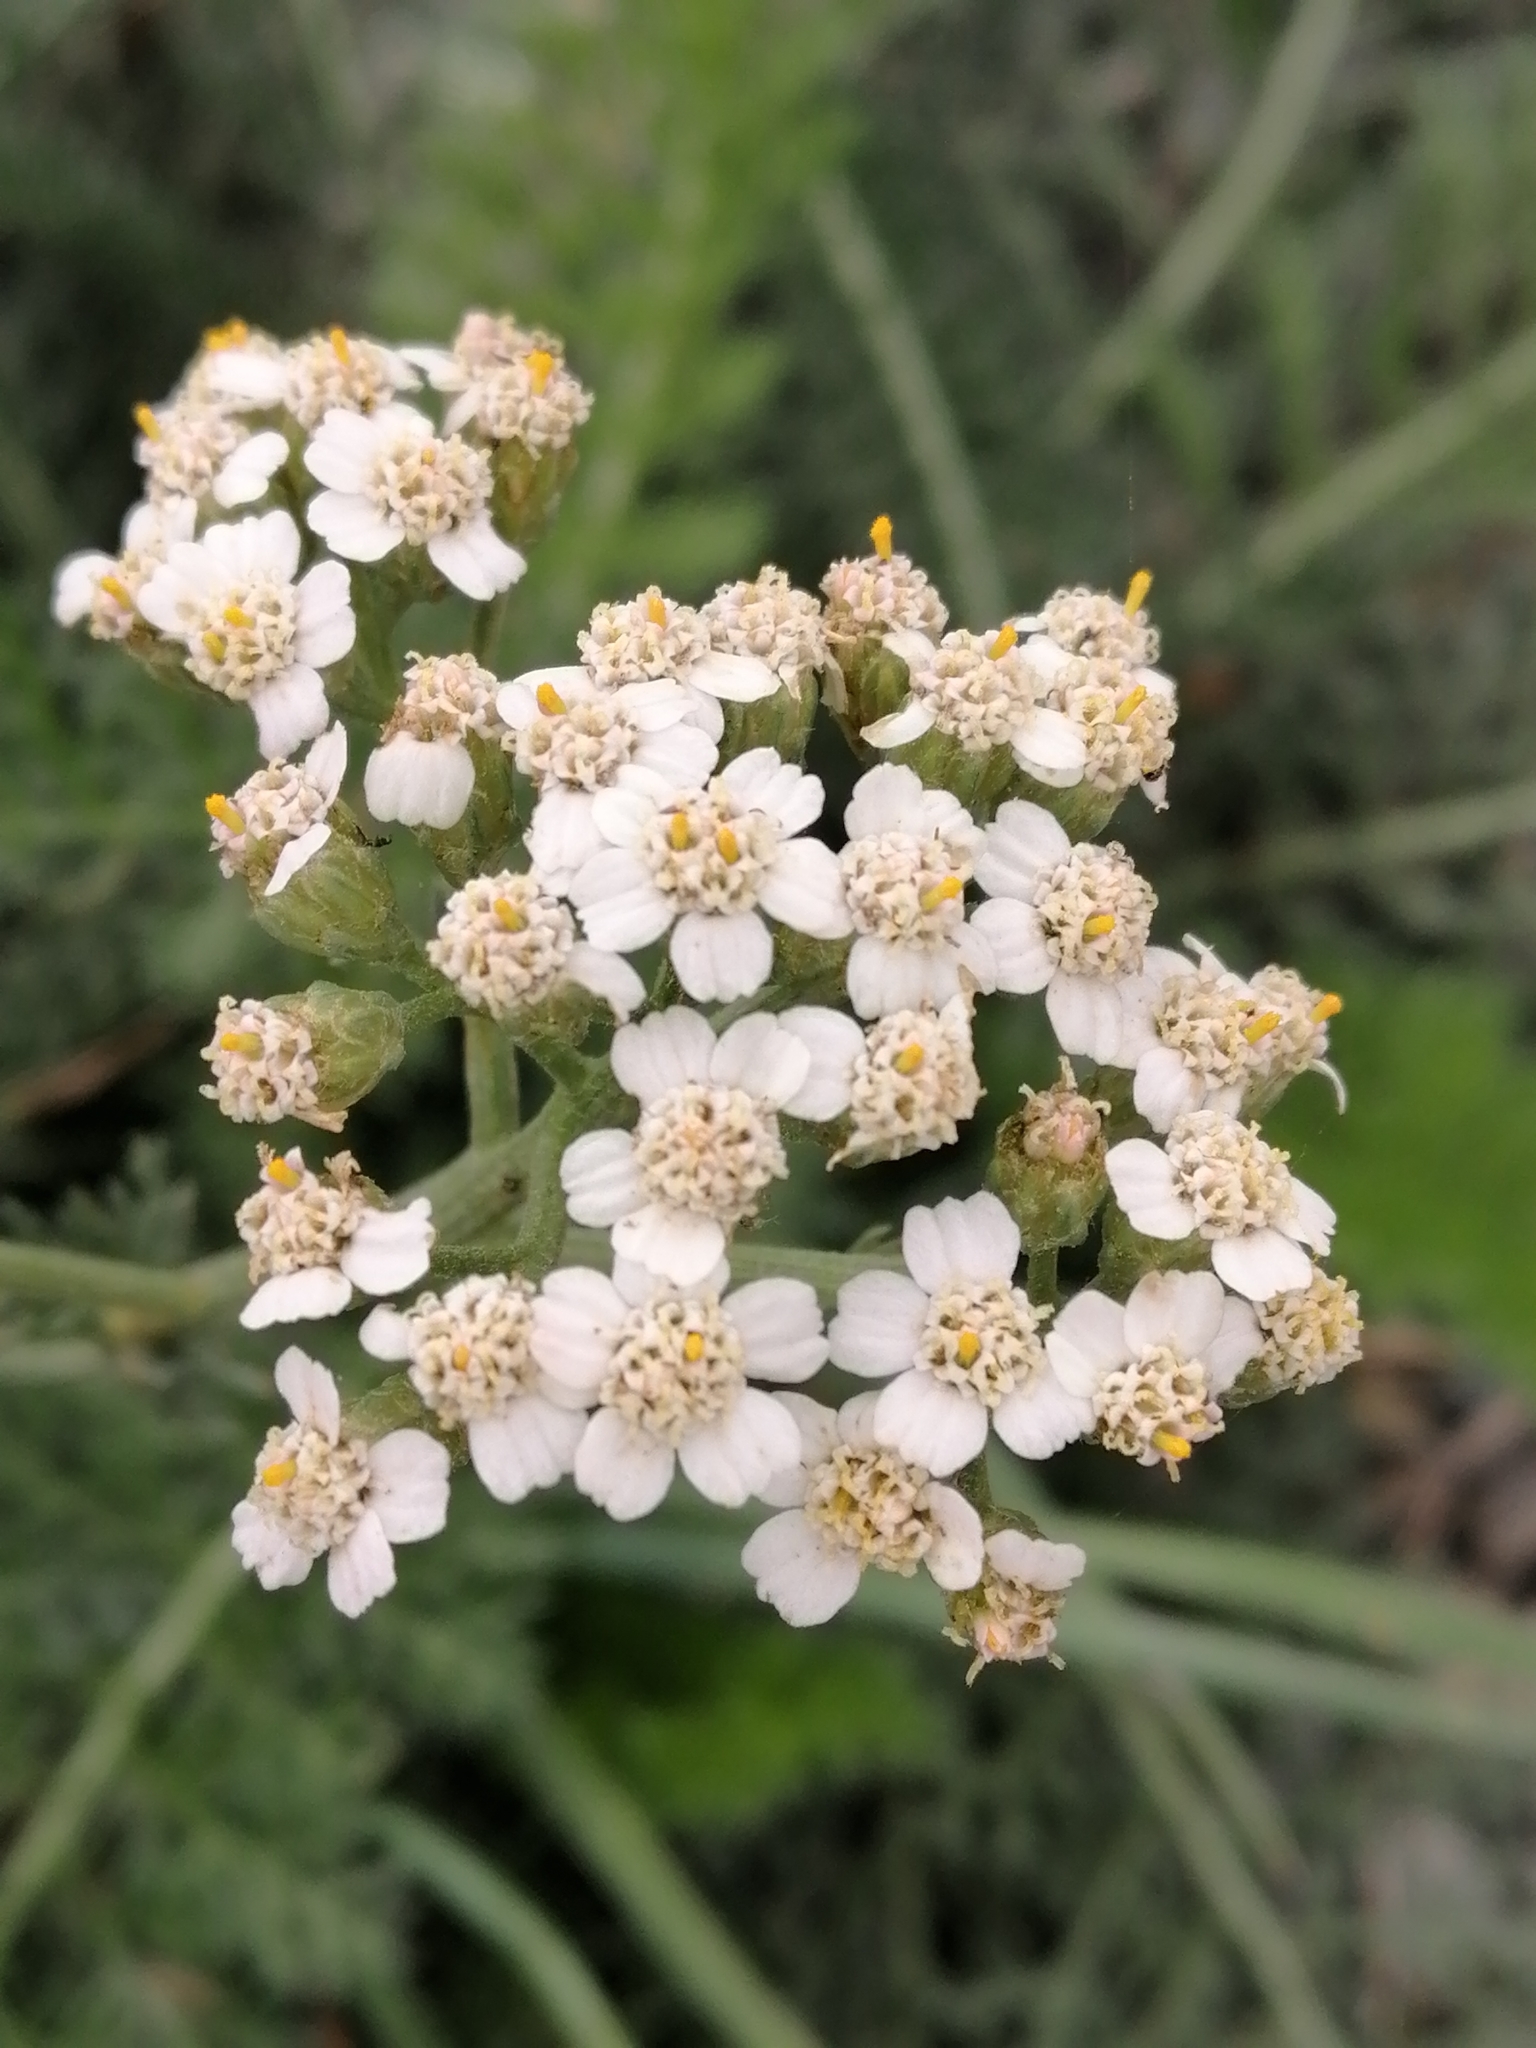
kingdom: Plantae
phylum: Tracheophyta
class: Magnoliopsida
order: Asterales
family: Asteraceae
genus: Achillea
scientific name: Achillea millefolium
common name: Yarrow
